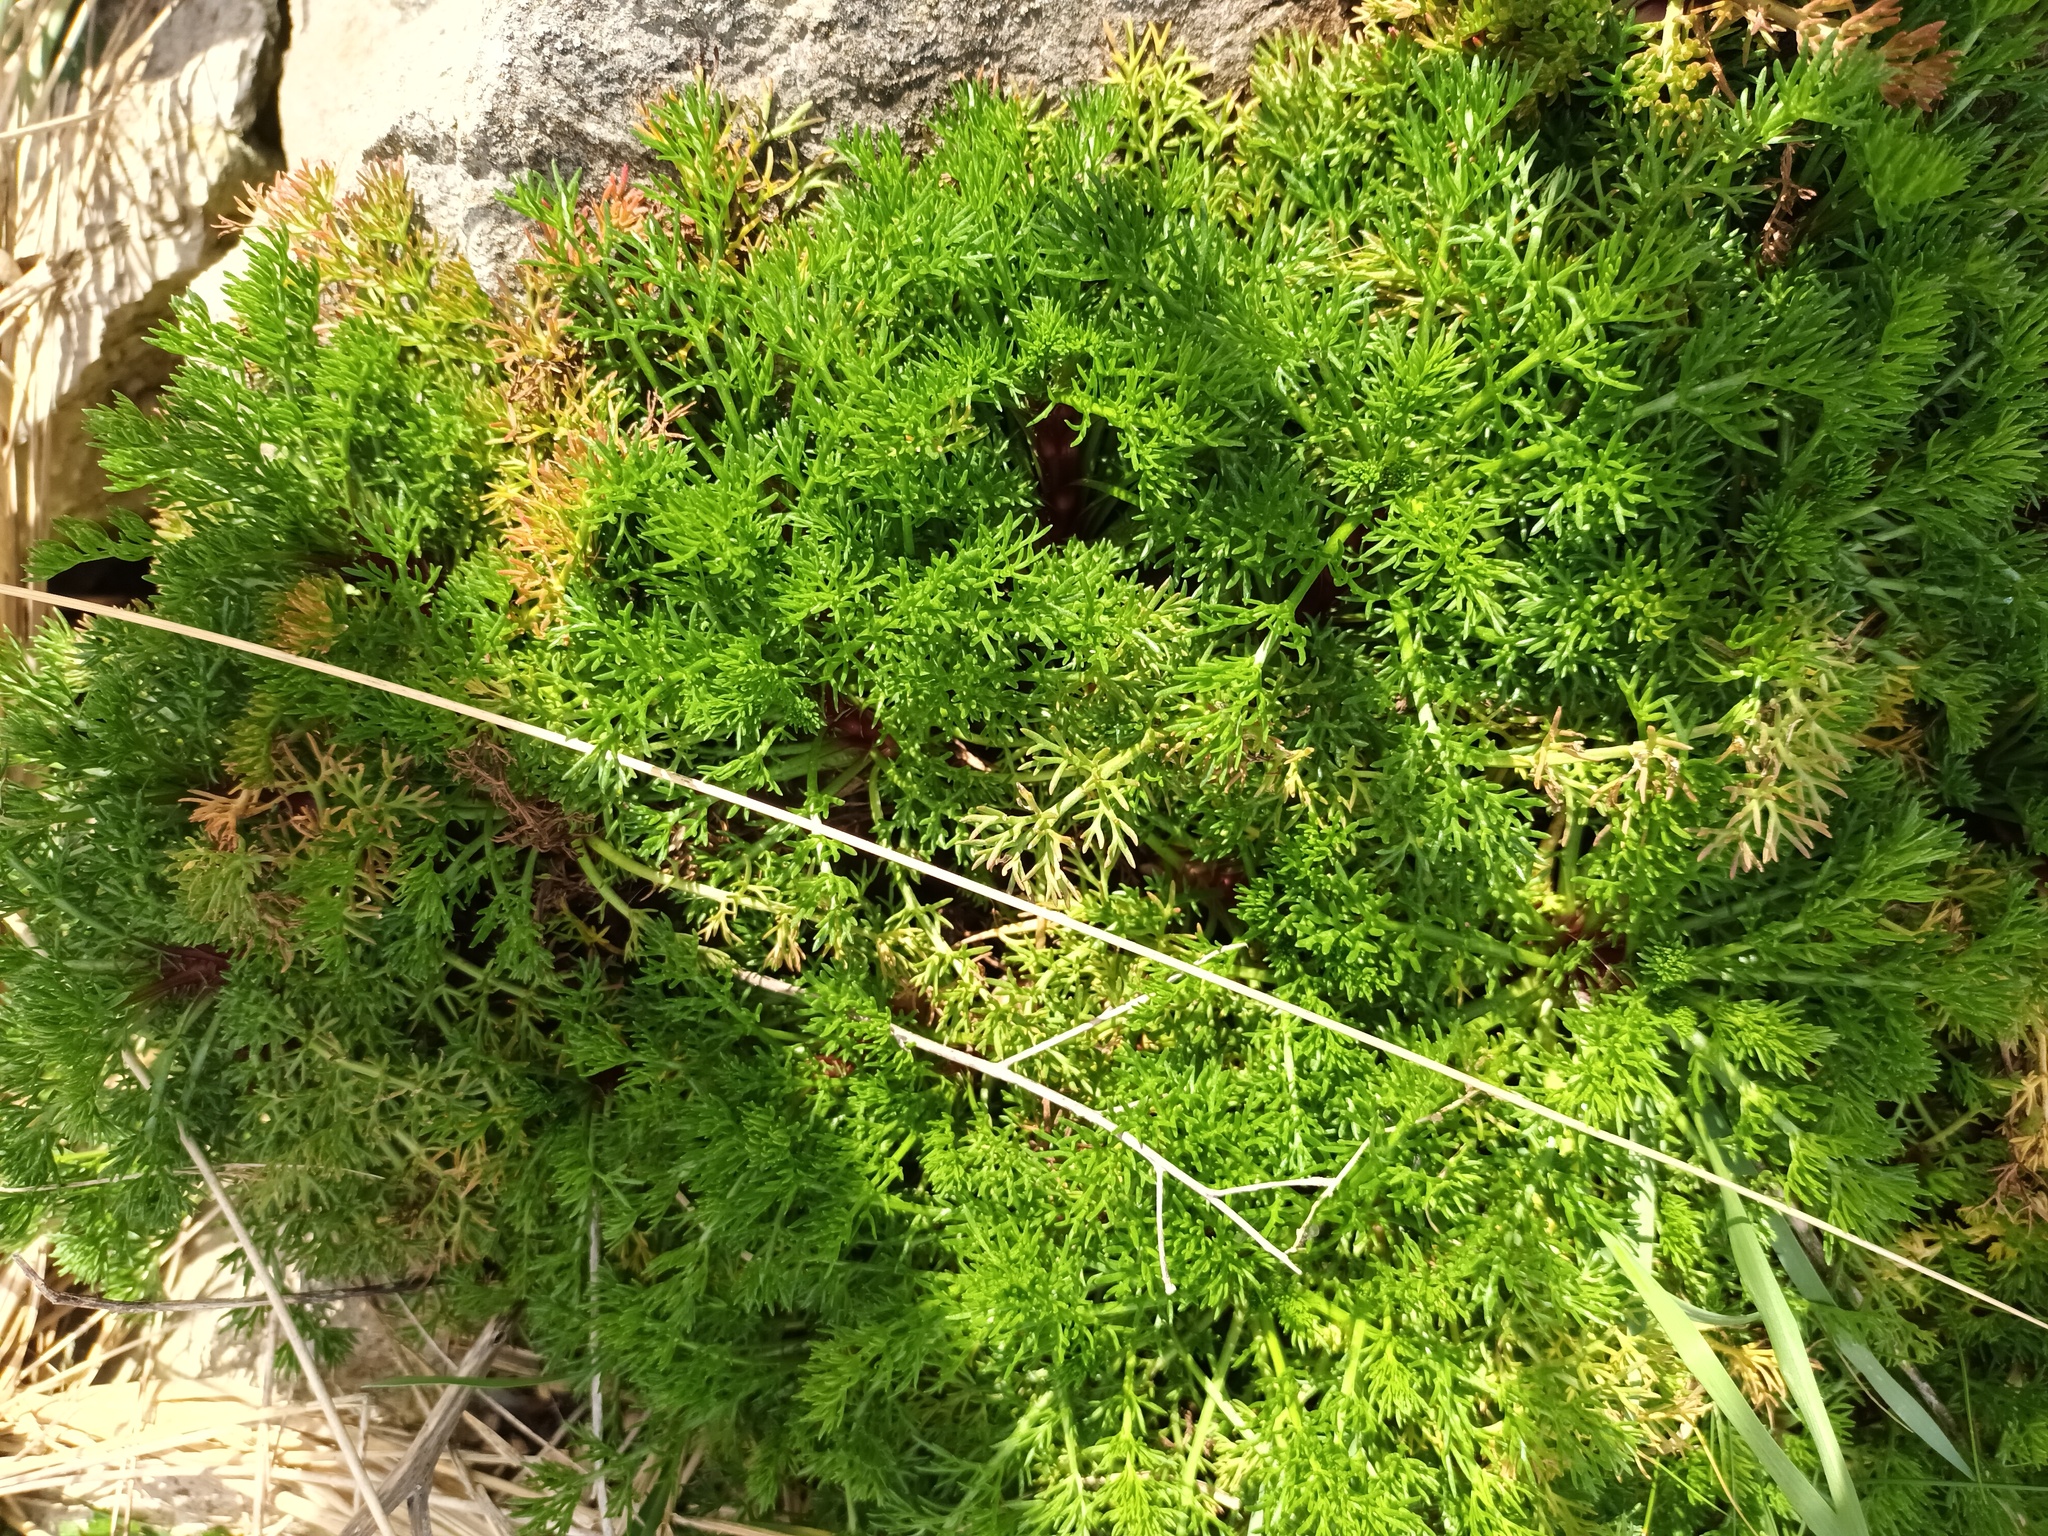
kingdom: Plantae
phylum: Tracheophyta
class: Magnoliopsida
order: Asterales
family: Asteraceae
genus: Tripleurospermum
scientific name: Tripleurospermum maritimum
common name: Sea mayweed
